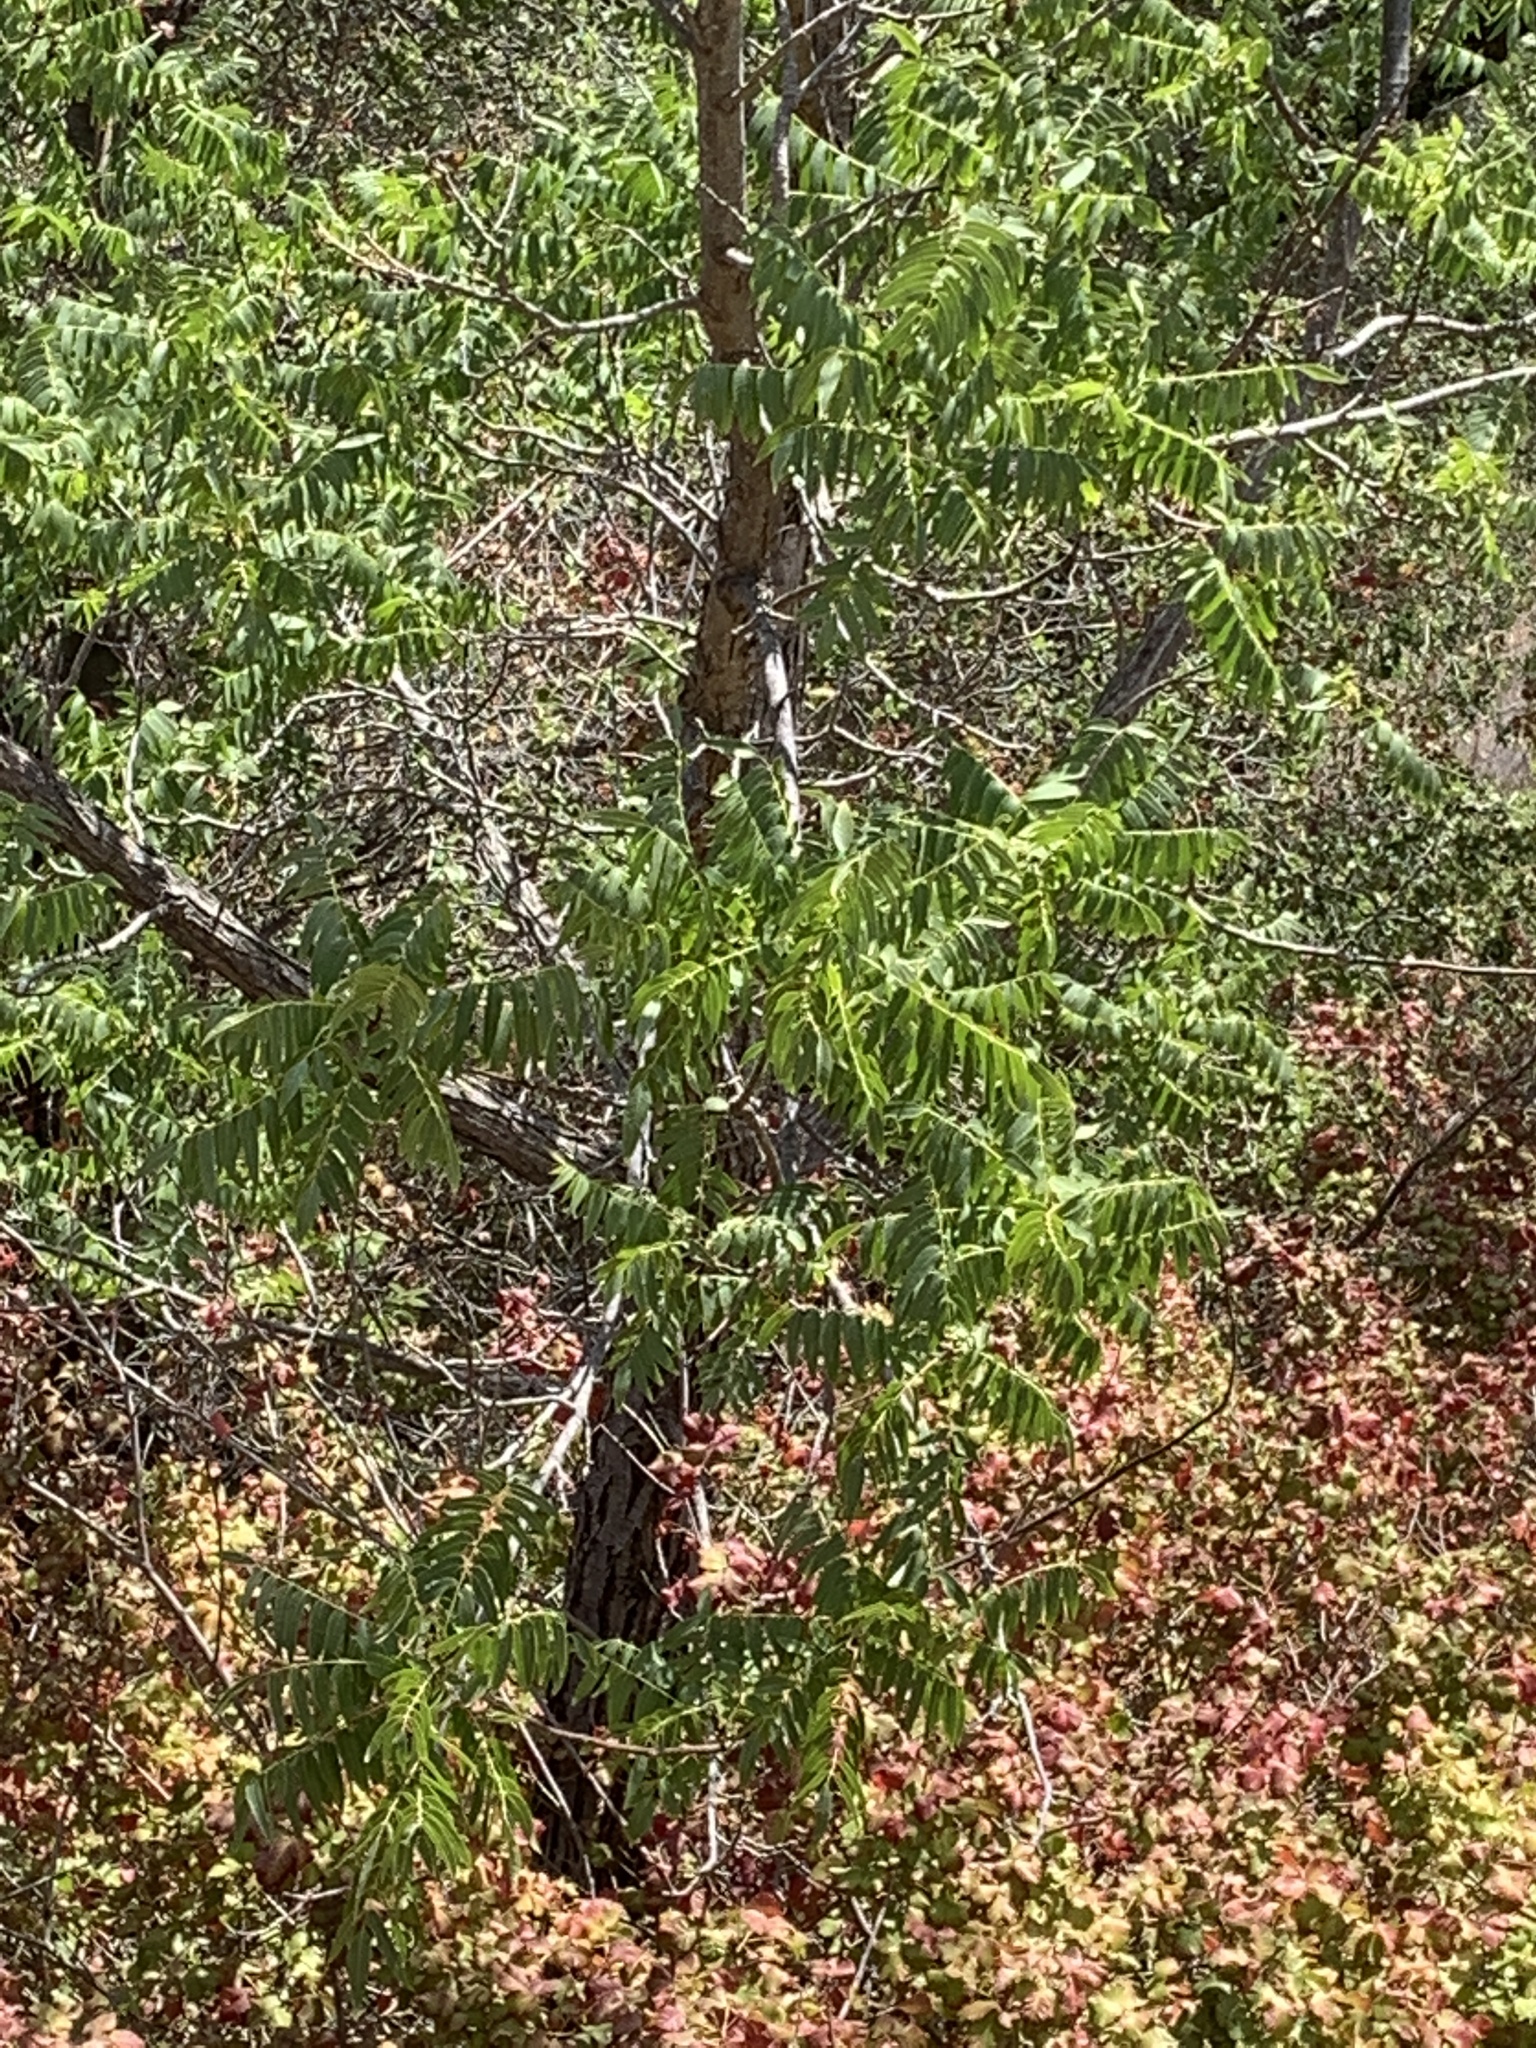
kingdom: Plantae
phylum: Tracheophyta
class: Magnoliopsida
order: Fagales
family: Juglandaceae
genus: Juglans
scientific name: Juglans hindsii
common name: Northern california black walnut
